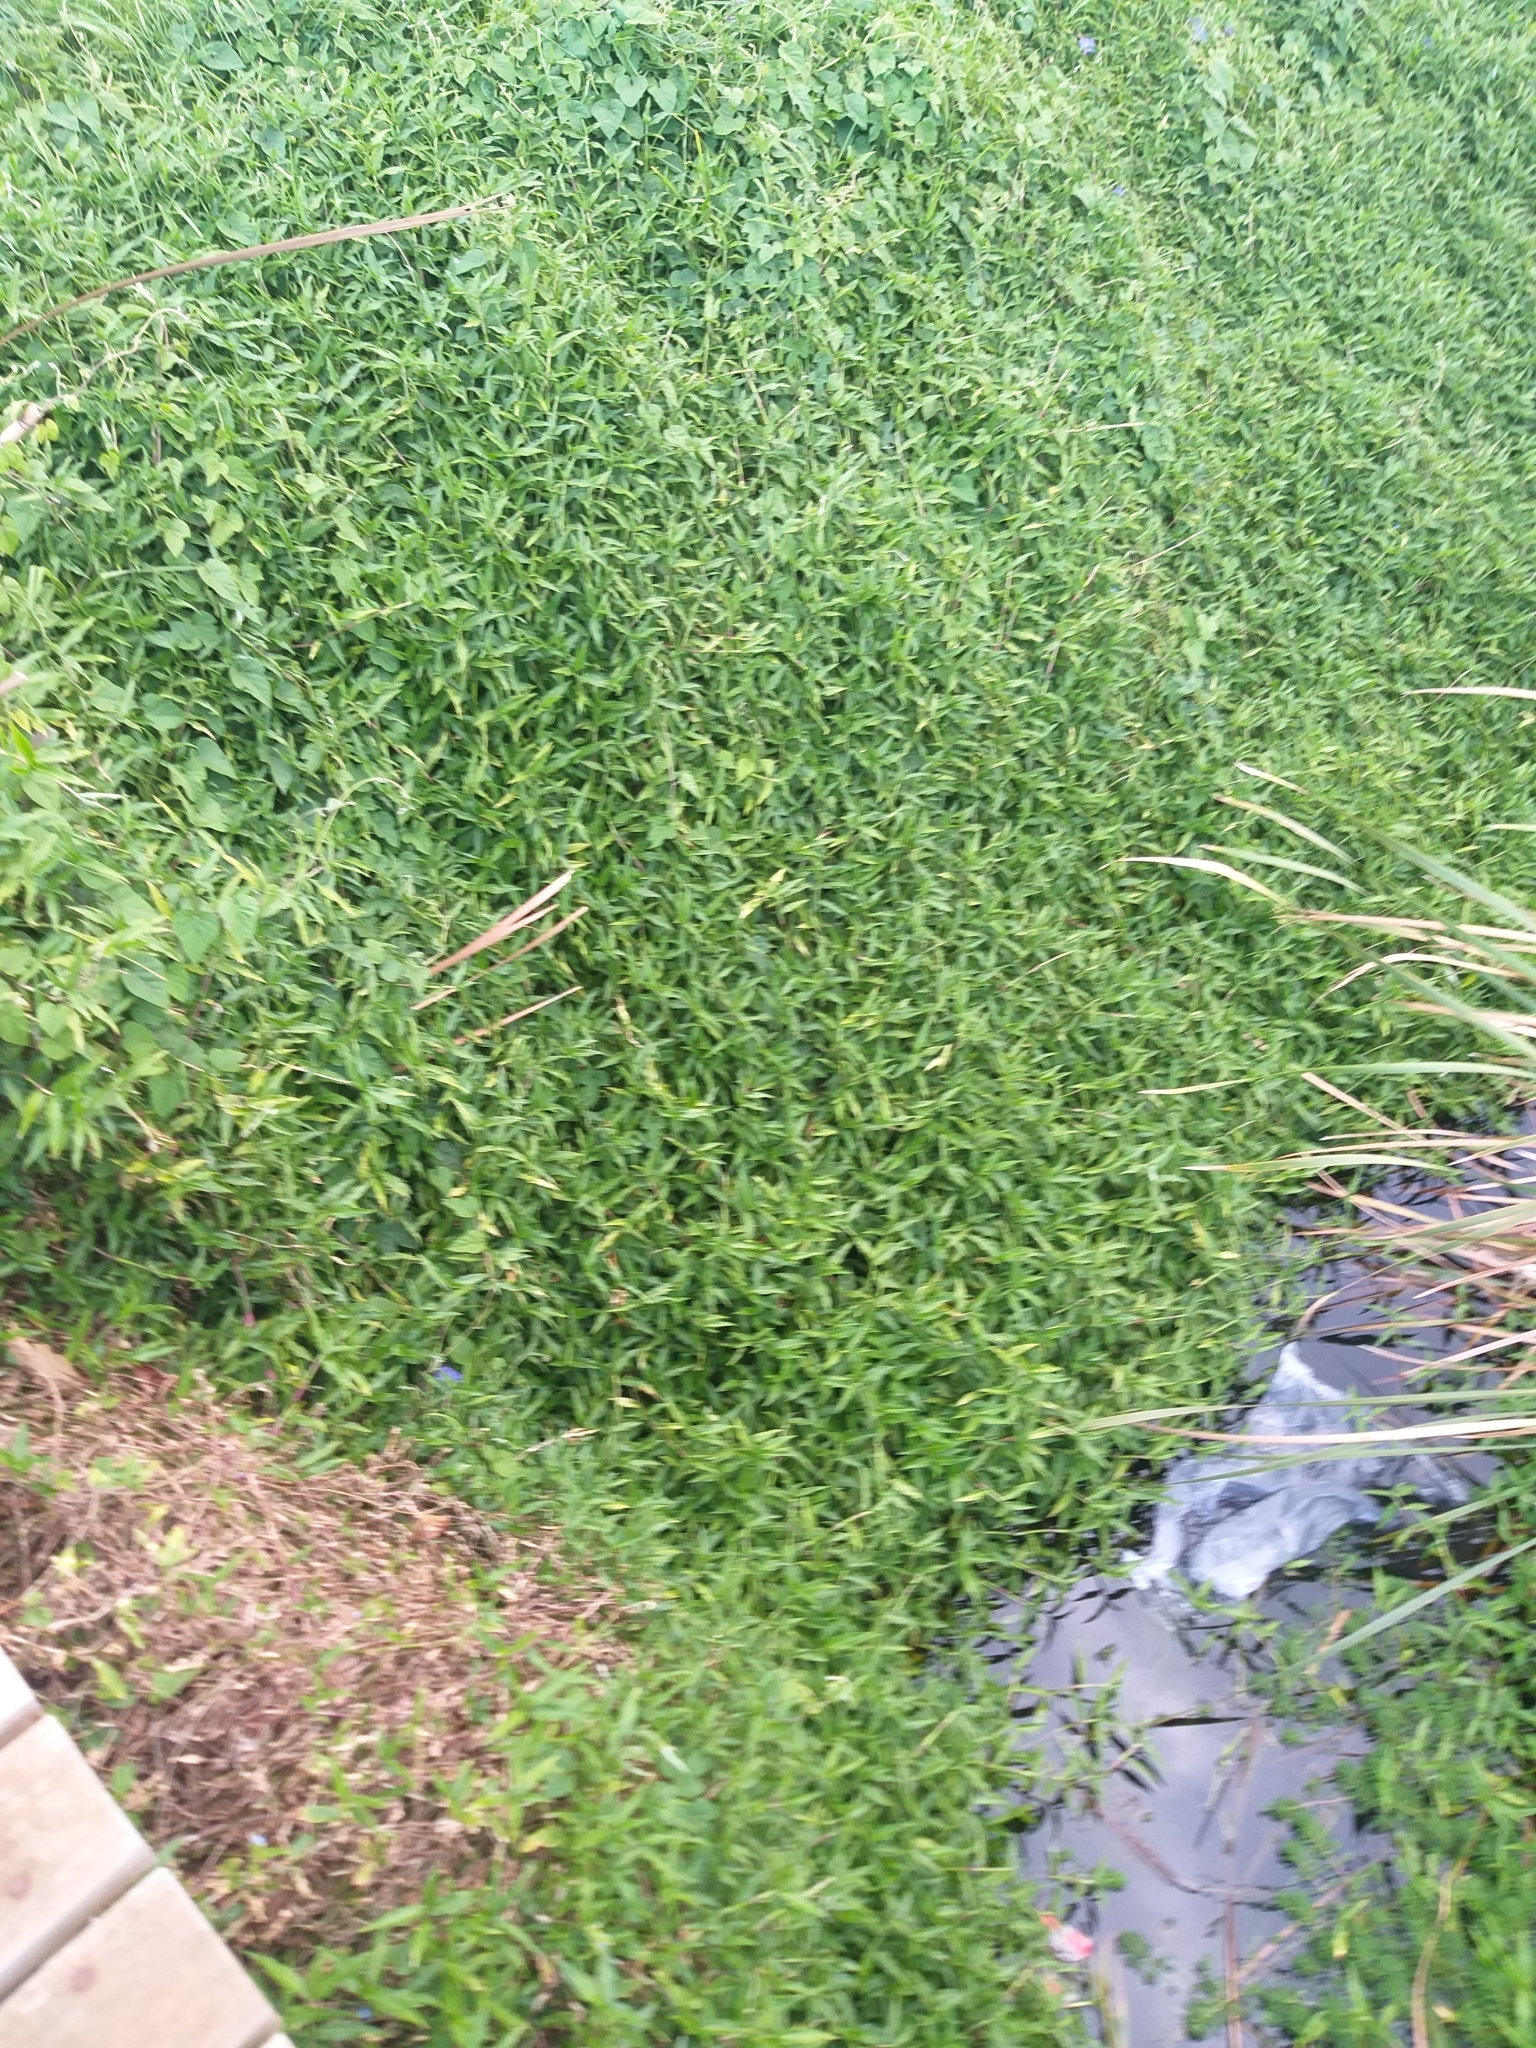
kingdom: Plantae
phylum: Tracheophyta
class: Liliopsida
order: Commelinales
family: Commelinaceae
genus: Commelina
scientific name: Commelina diffusa
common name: Climbing dayflower
